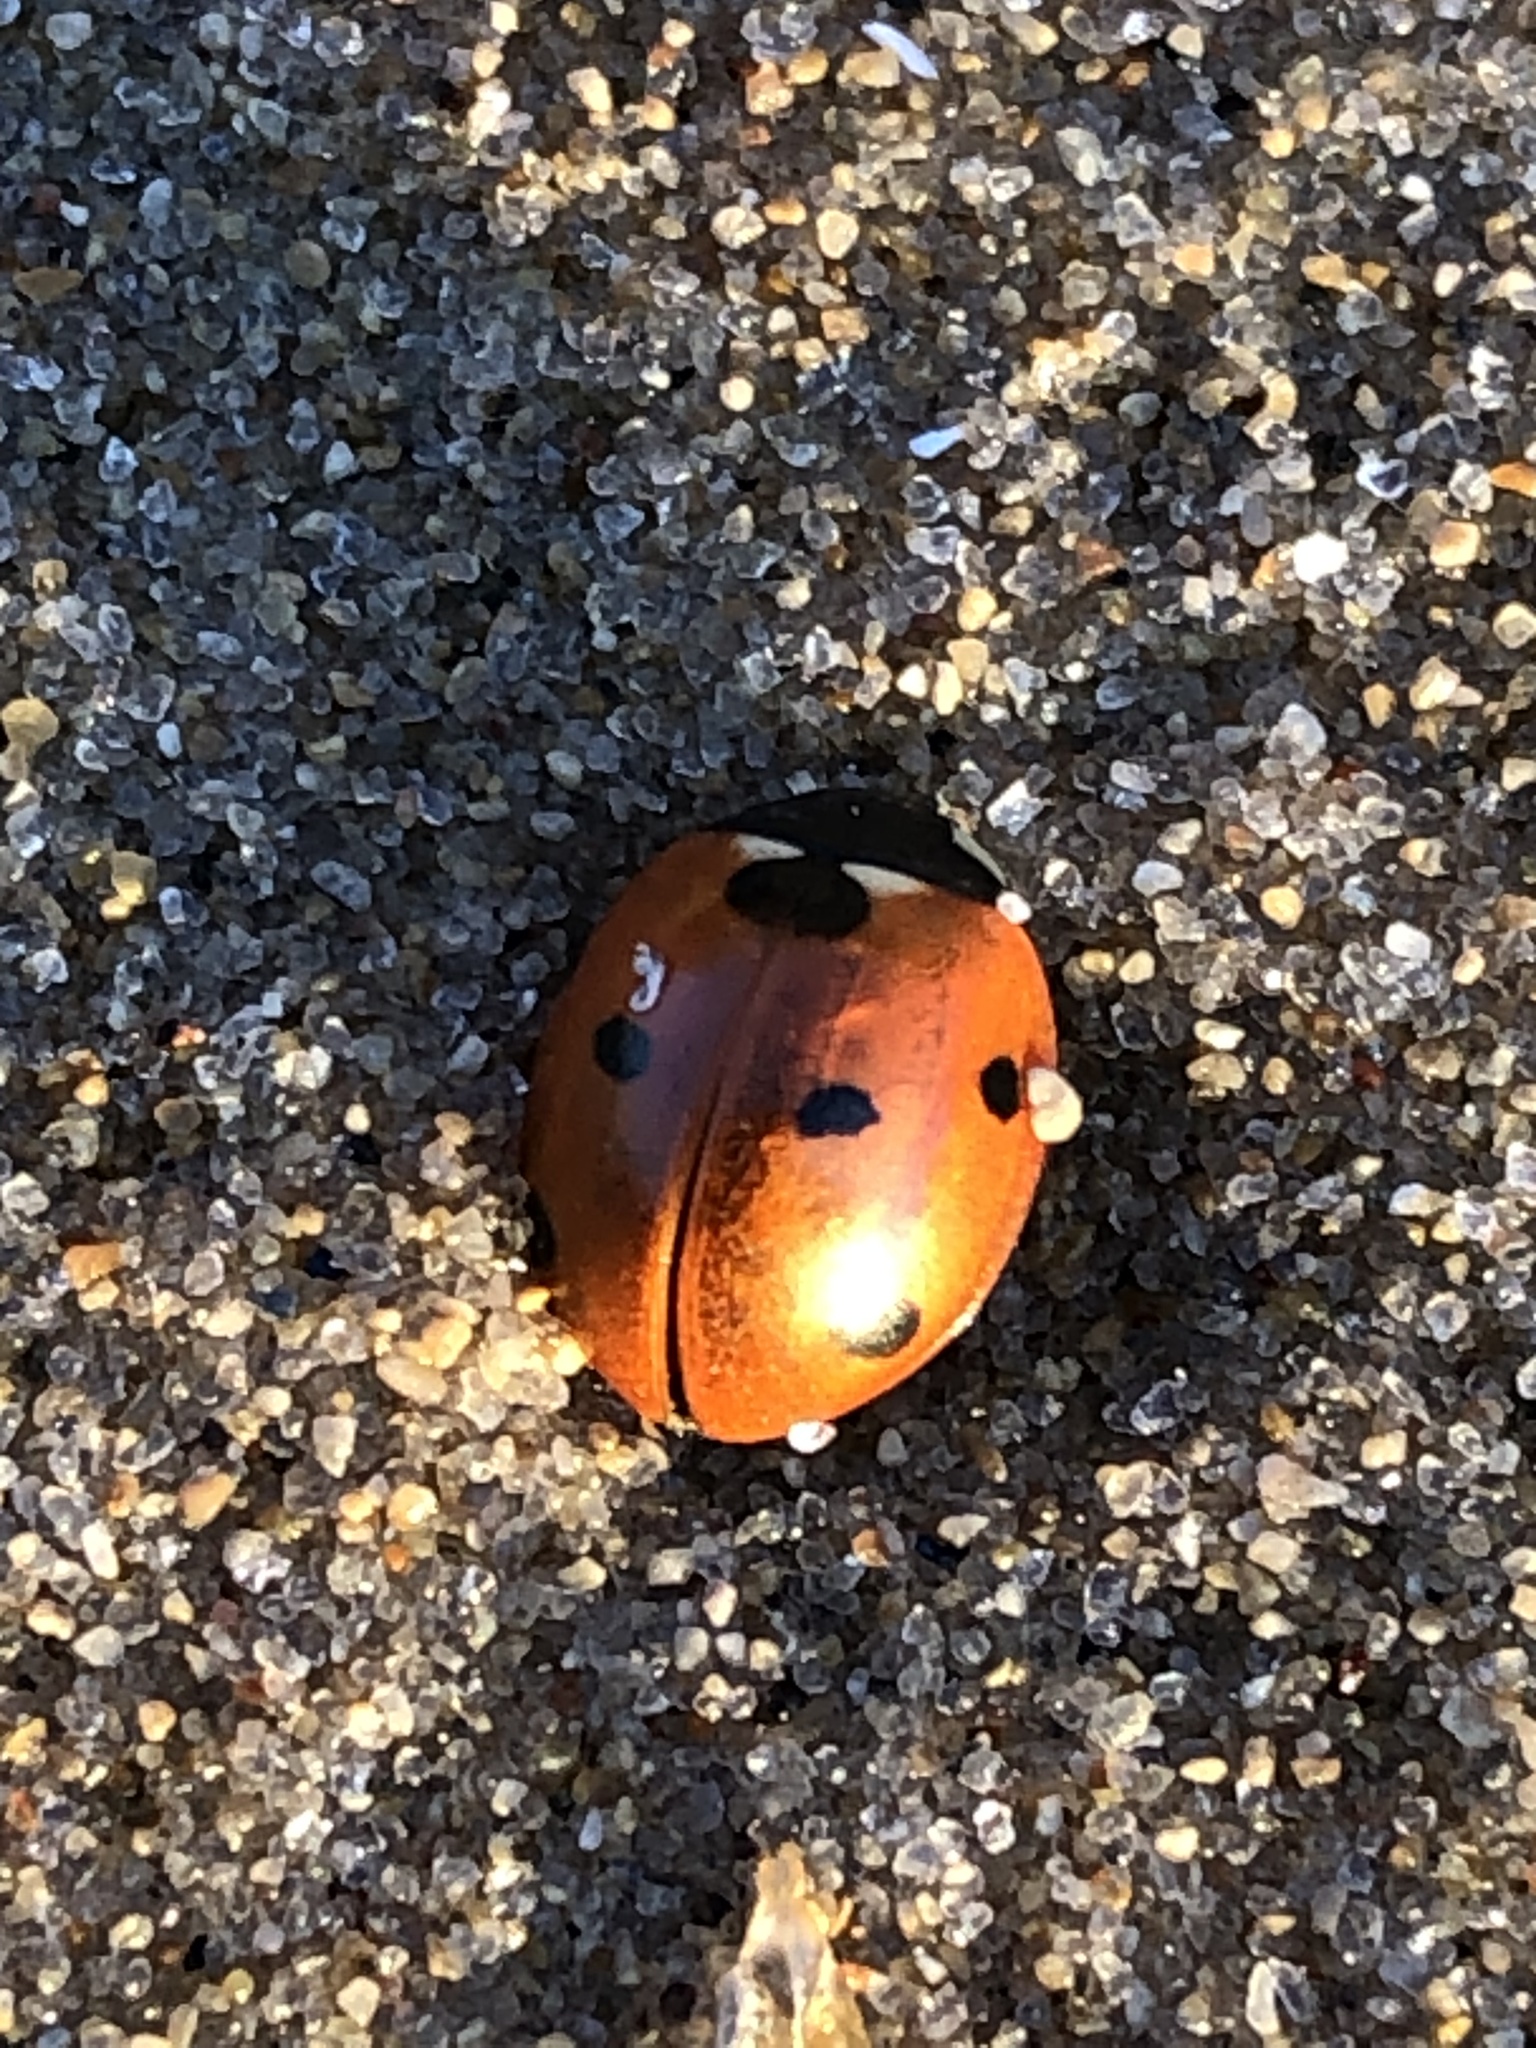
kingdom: Animalia
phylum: Arthropoda
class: Insecta
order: Coleoptera
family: Coccinellidae
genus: Coccinella
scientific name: Coccinella septempunctata
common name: Sevenspotted lady beetle
